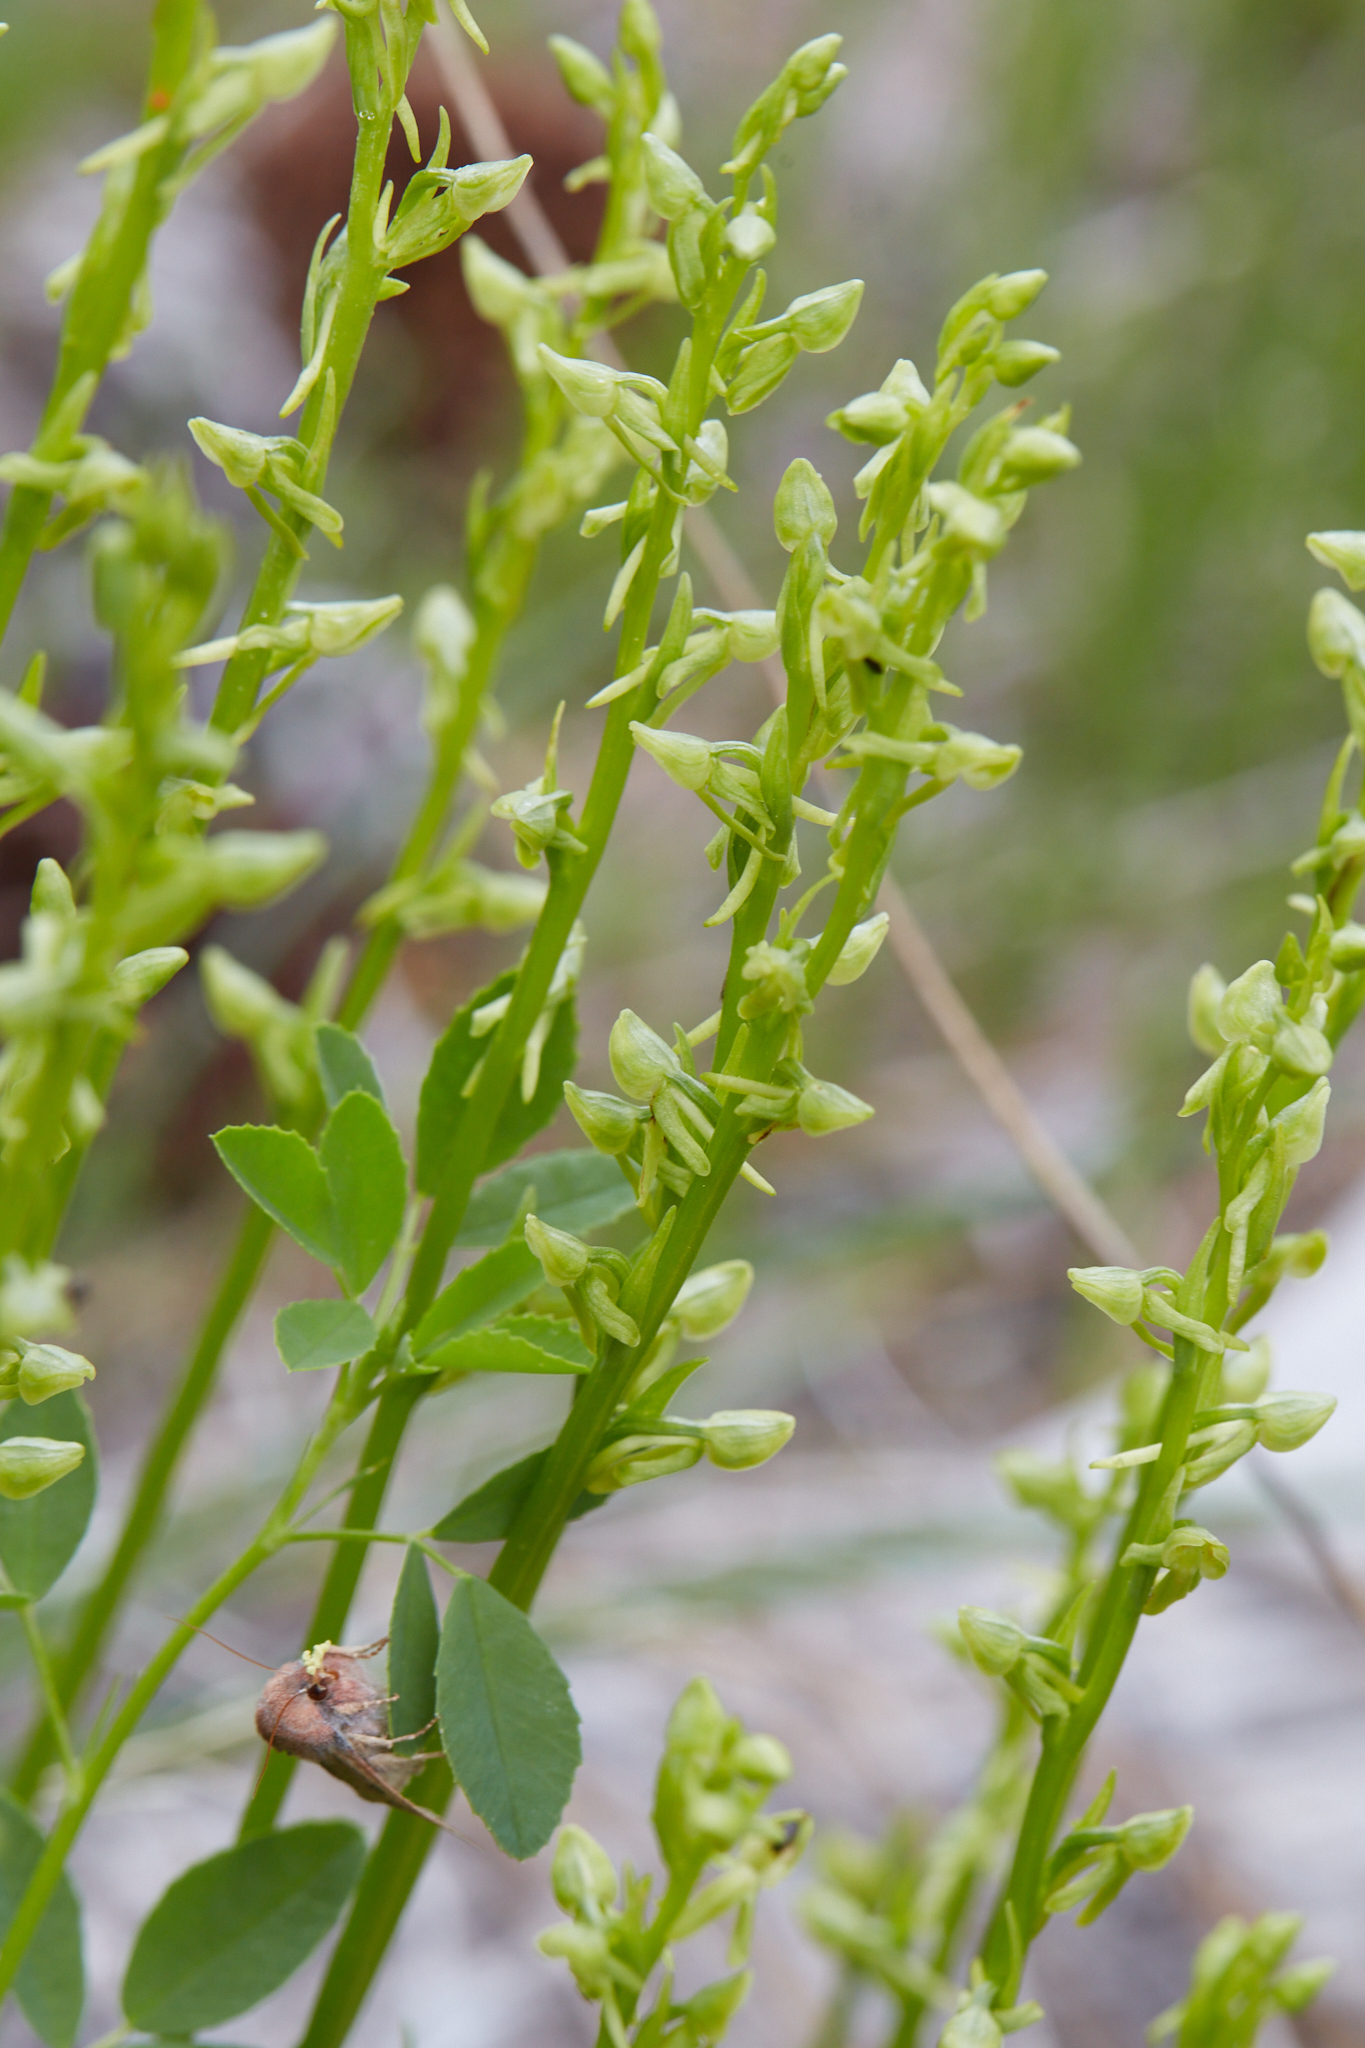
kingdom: Plantae
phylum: Tracheophyta
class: Liliopsida
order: Asparagales
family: Orchidaceae
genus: Platanthera
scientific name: Platanthera sparsiflora
